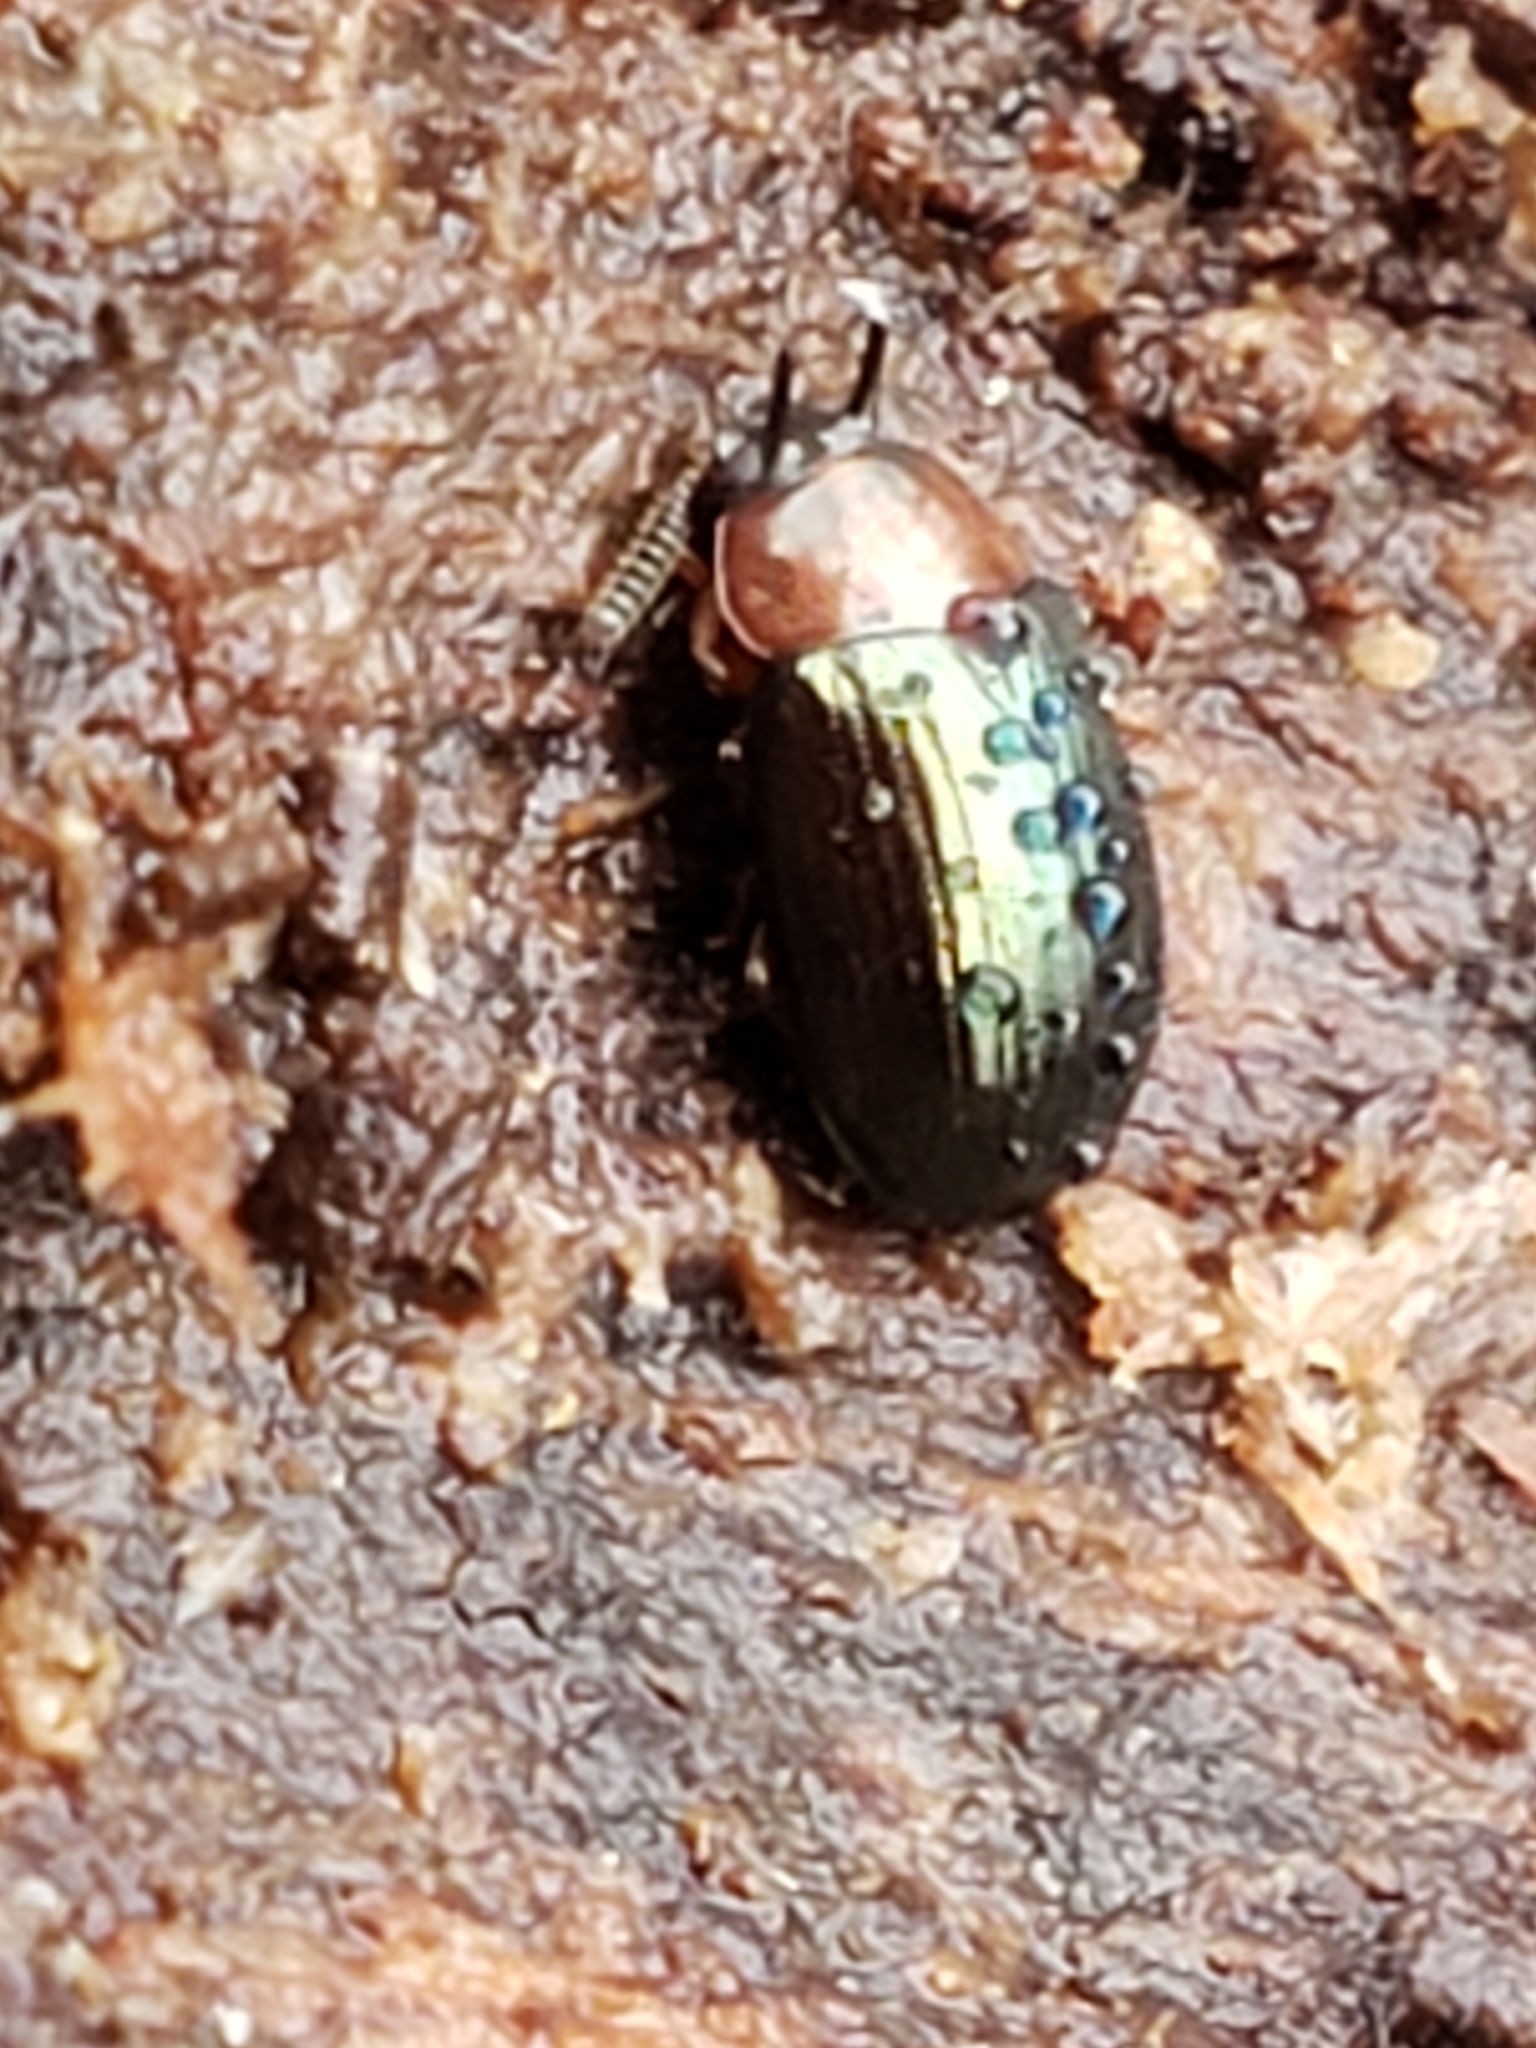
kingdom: Animalia
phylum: Arthropoda
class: Insecta
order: Coleoptera
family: Tenebrionidae
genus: Neomida
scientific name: Neomida bicornis
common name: Two-horned darkling beetle
